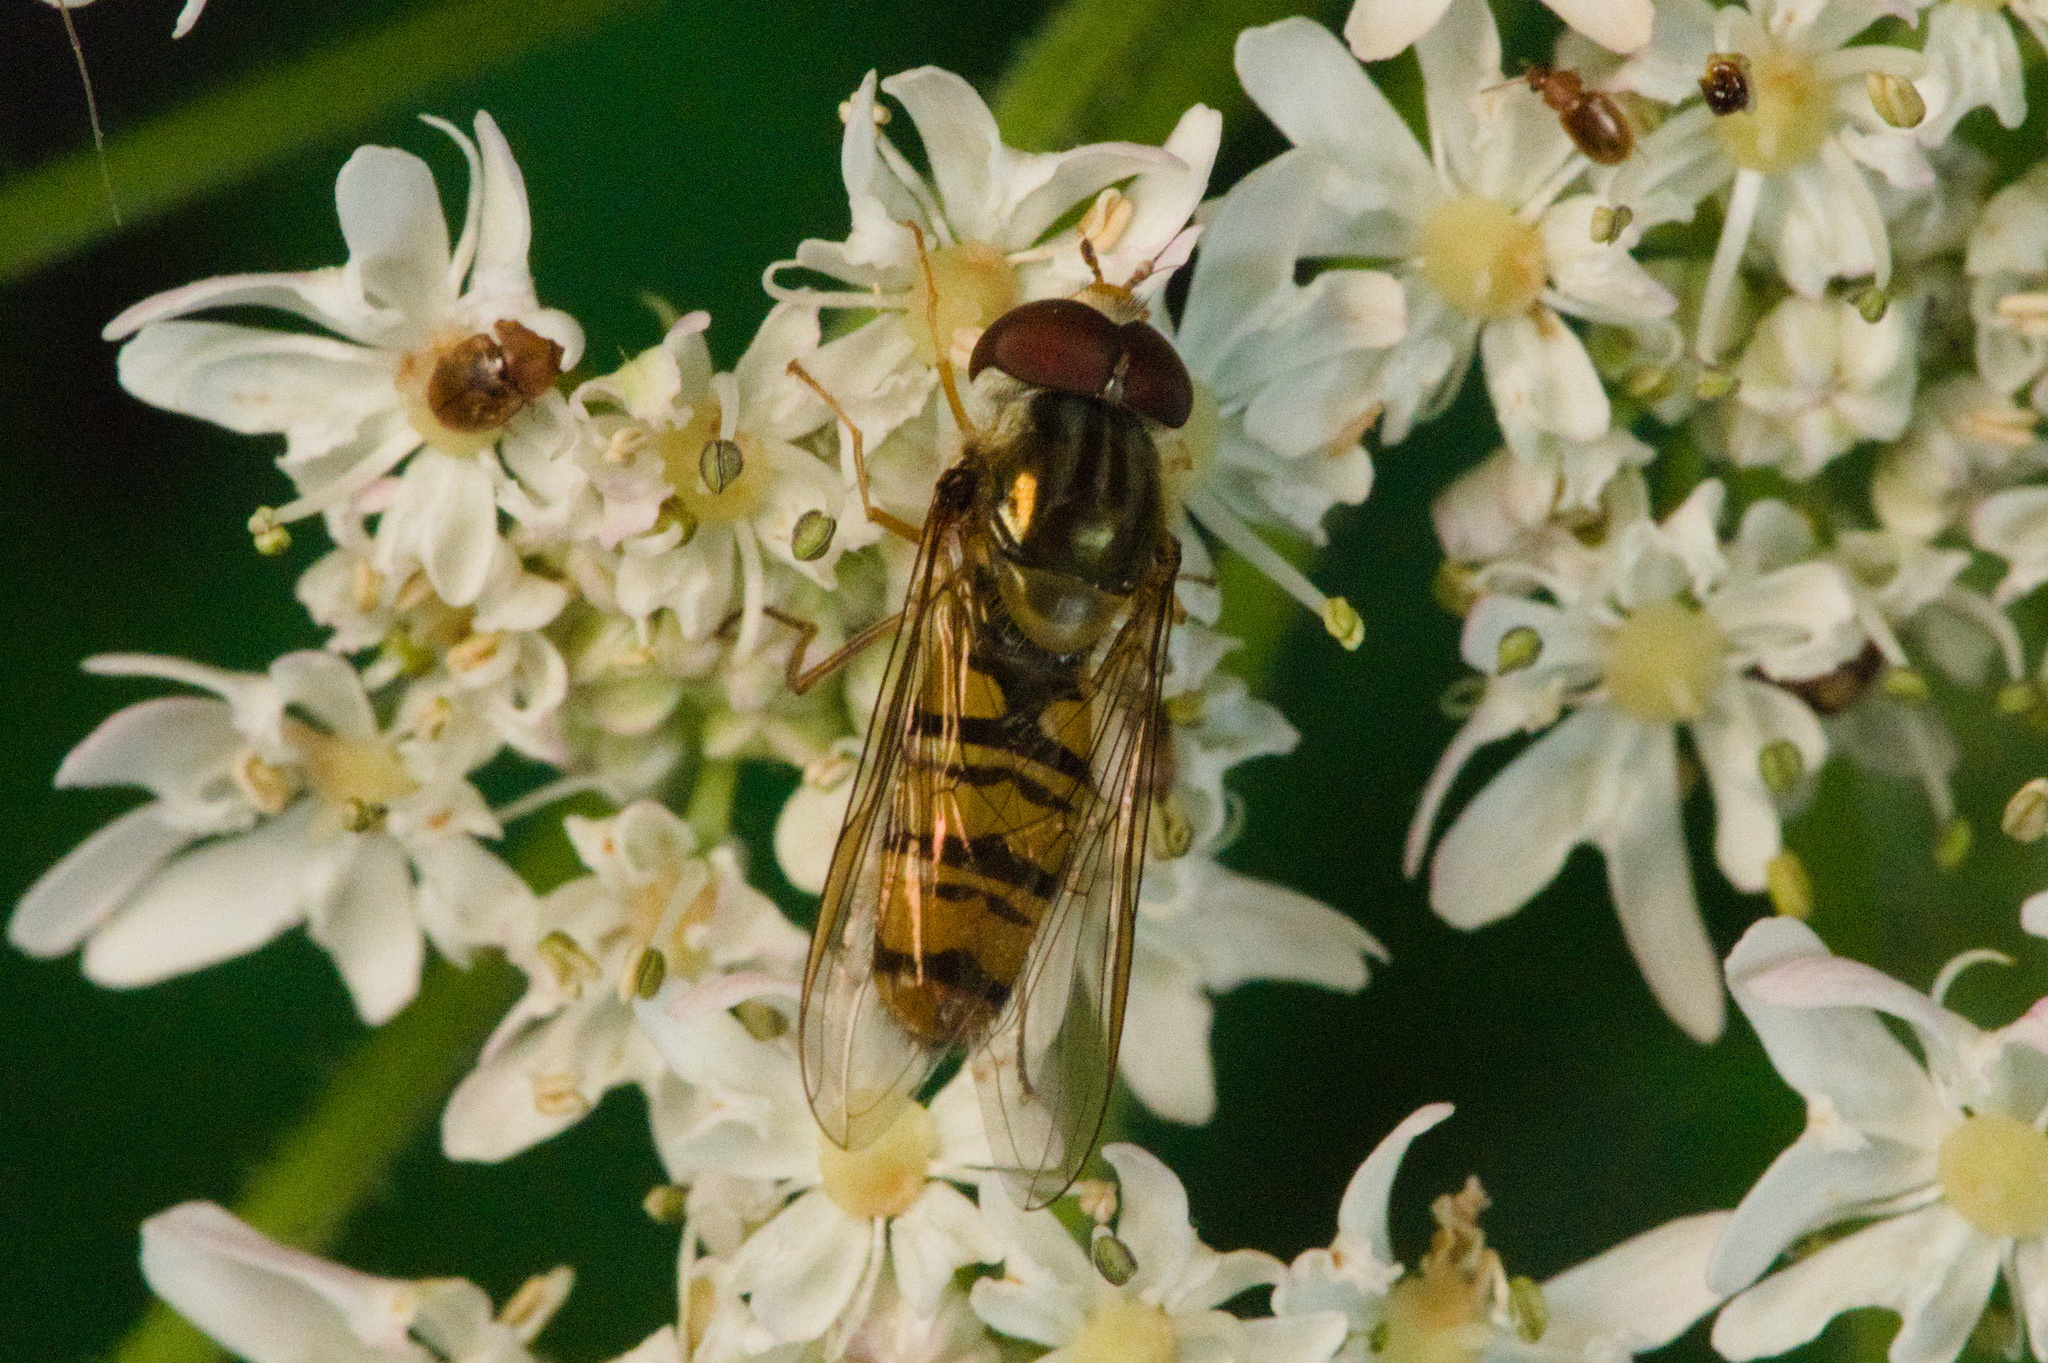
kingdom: Animalia
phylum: Arthropoda
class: Insecta
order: Diptera
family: Syrphidae
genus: Episyrphus
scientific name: Episyrphus balteatus
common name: Marmalade hoverfly
